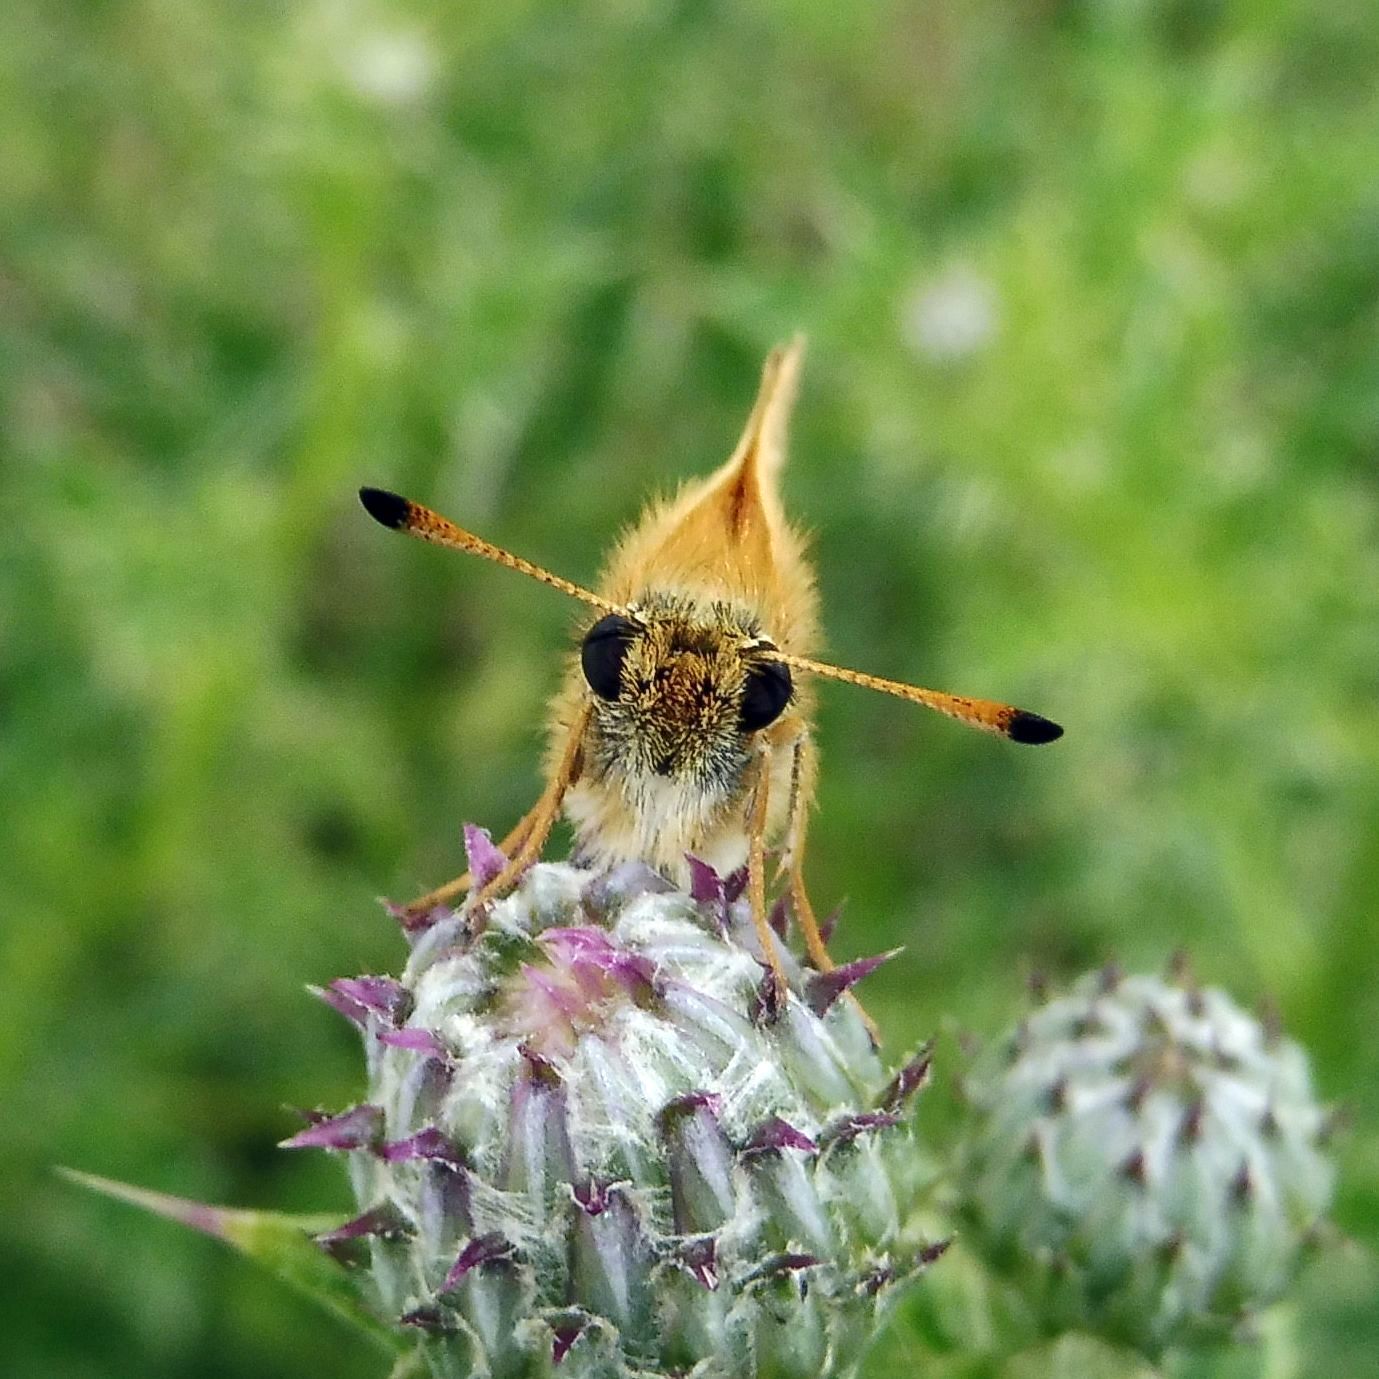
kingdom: Animalia
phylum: Arthropoda
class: Insecta
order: Lepidoptera
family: Hesperiidae
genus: Thymelicus
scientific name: Thymelicus lineola
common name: Essex skipper
